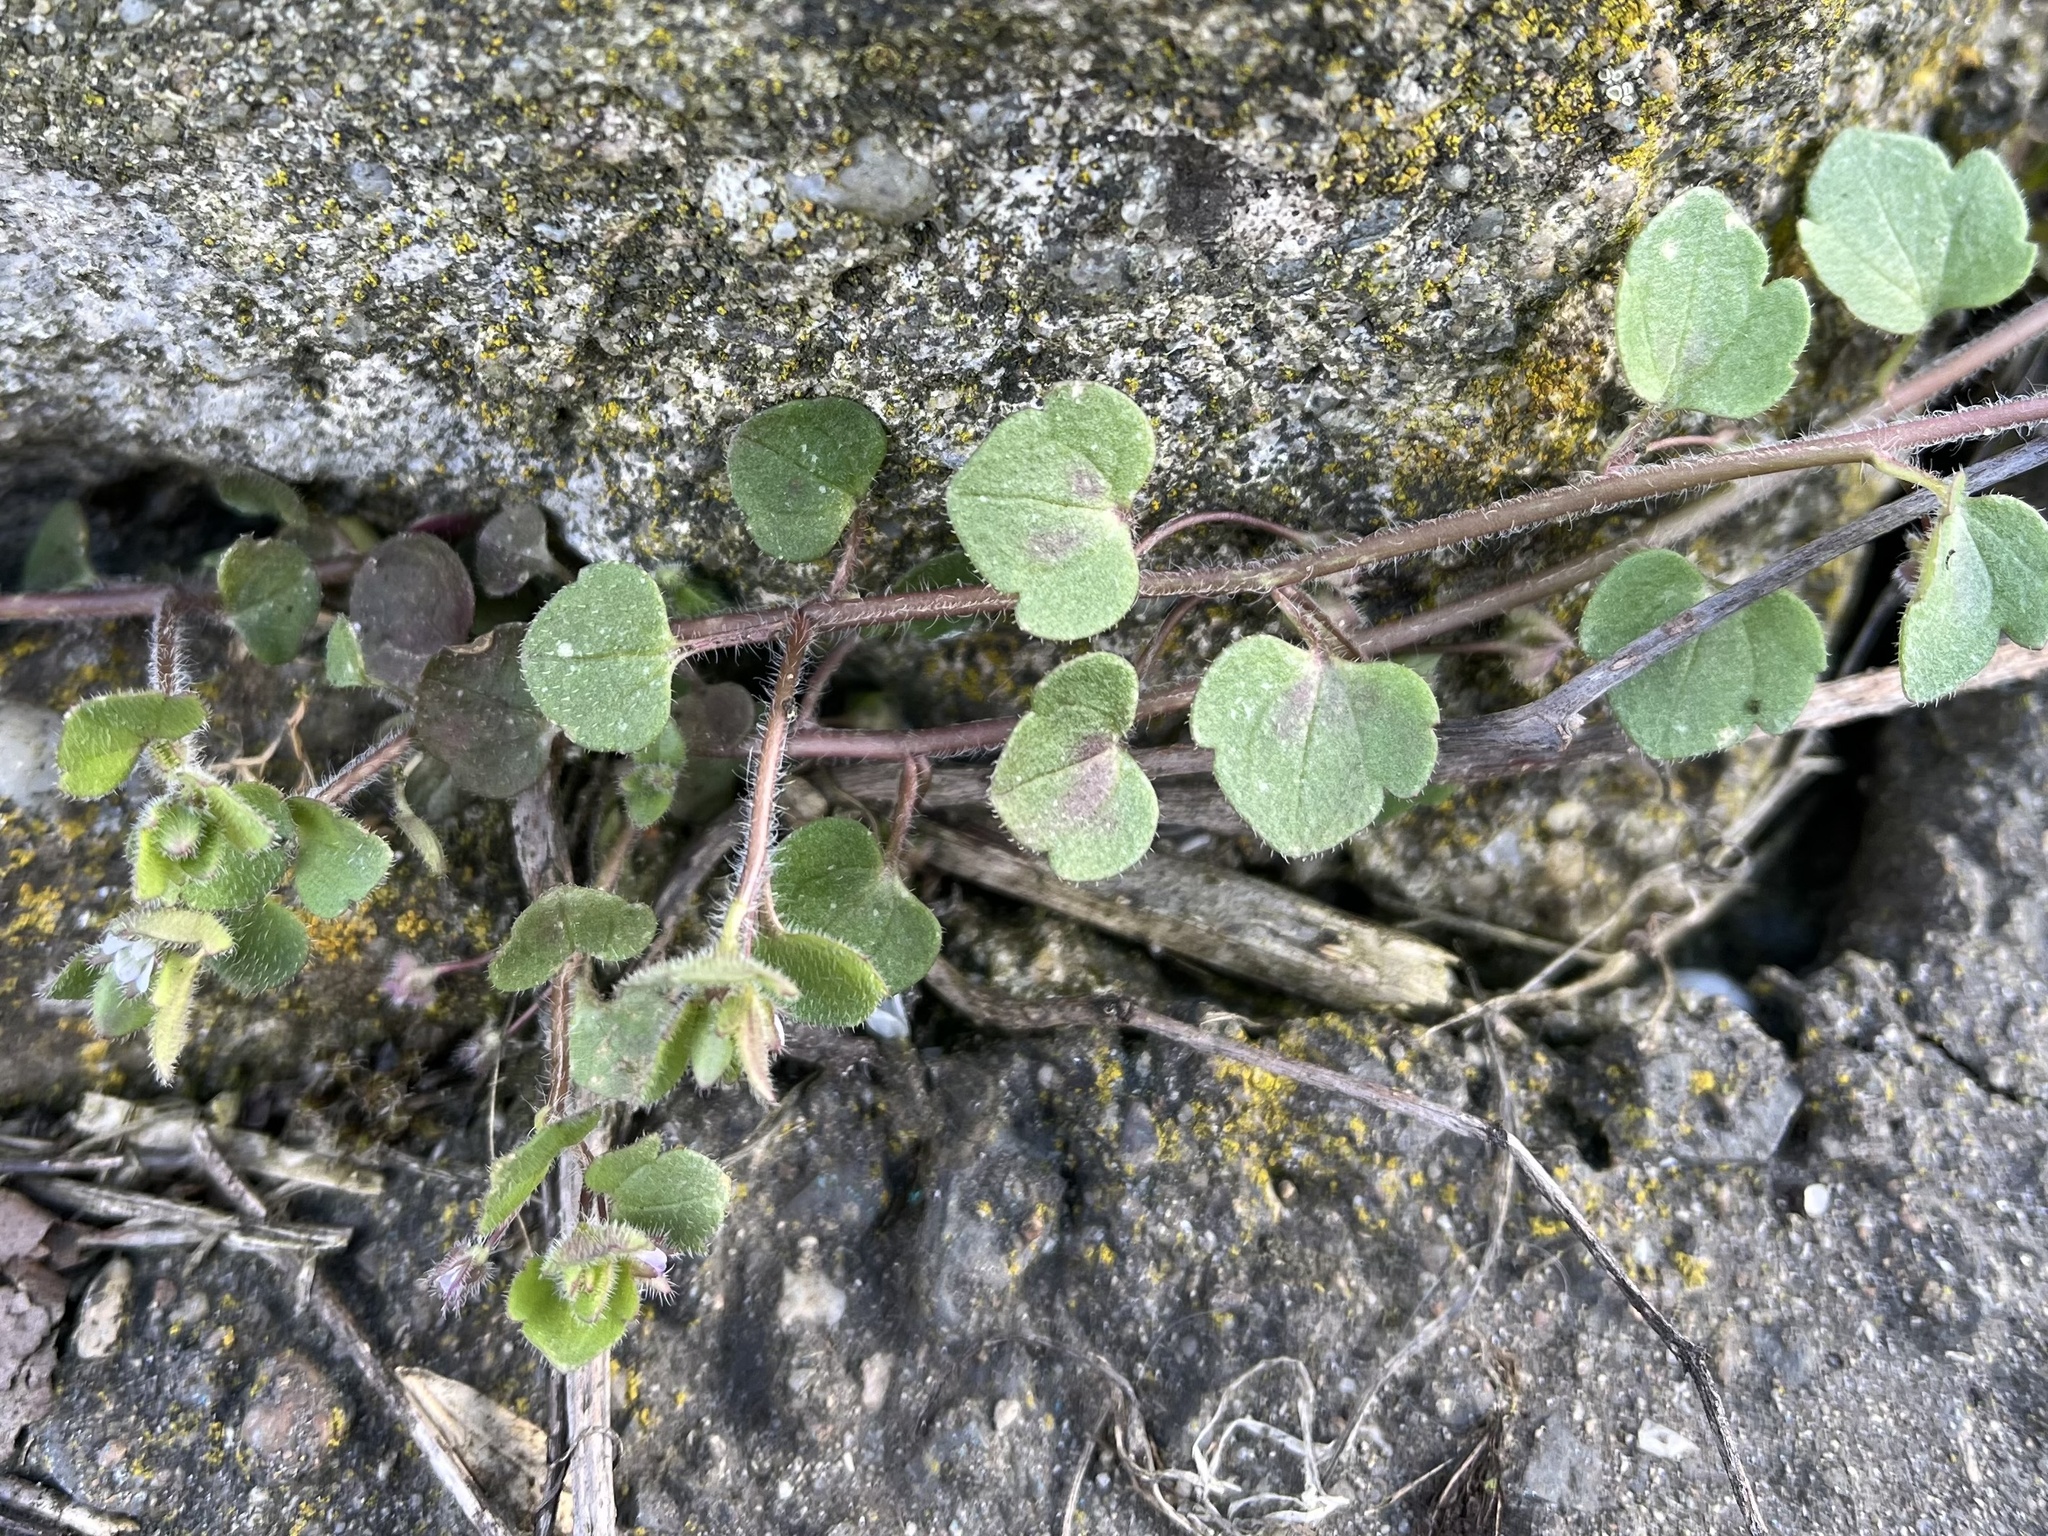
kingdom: Plantae
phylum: Tracheophyta
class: Magnoliopsida
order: Lamiales
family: Plantaginaceae
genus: Veronica
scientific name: Veronica sublobata
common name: False ivy-leaved speedwell
